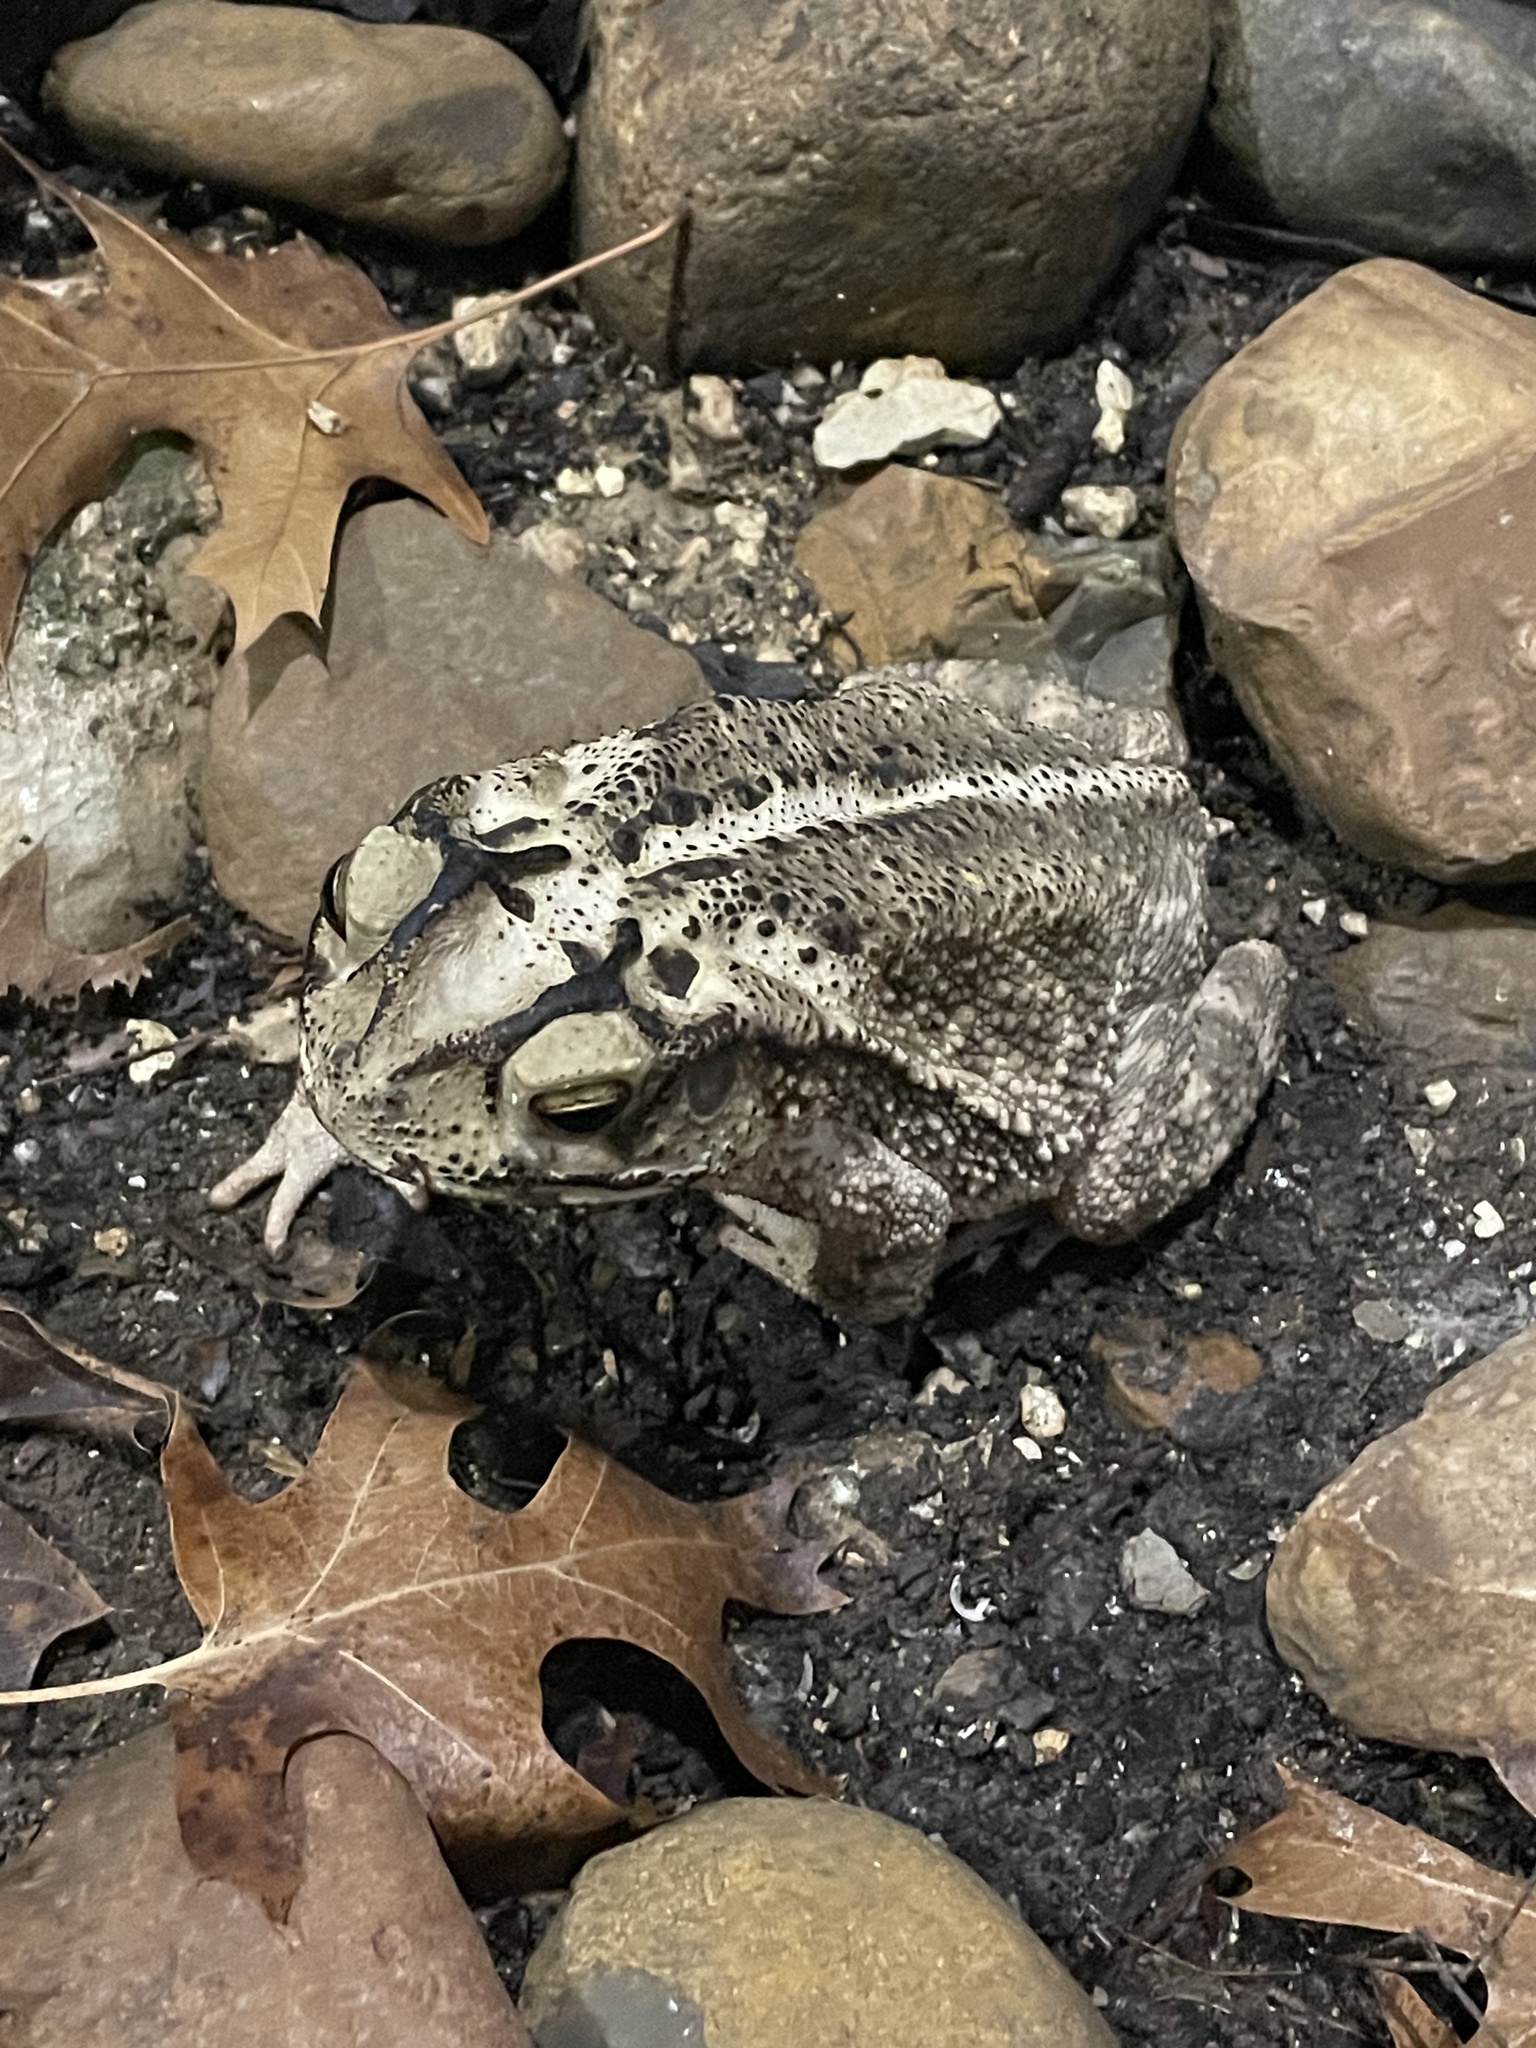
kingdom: Animalia
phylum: Chordata
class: Amphibia
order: Anura
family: Bufonidae
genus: Incilius
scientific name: Incilius nebulifer
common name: Gulf coast toad
